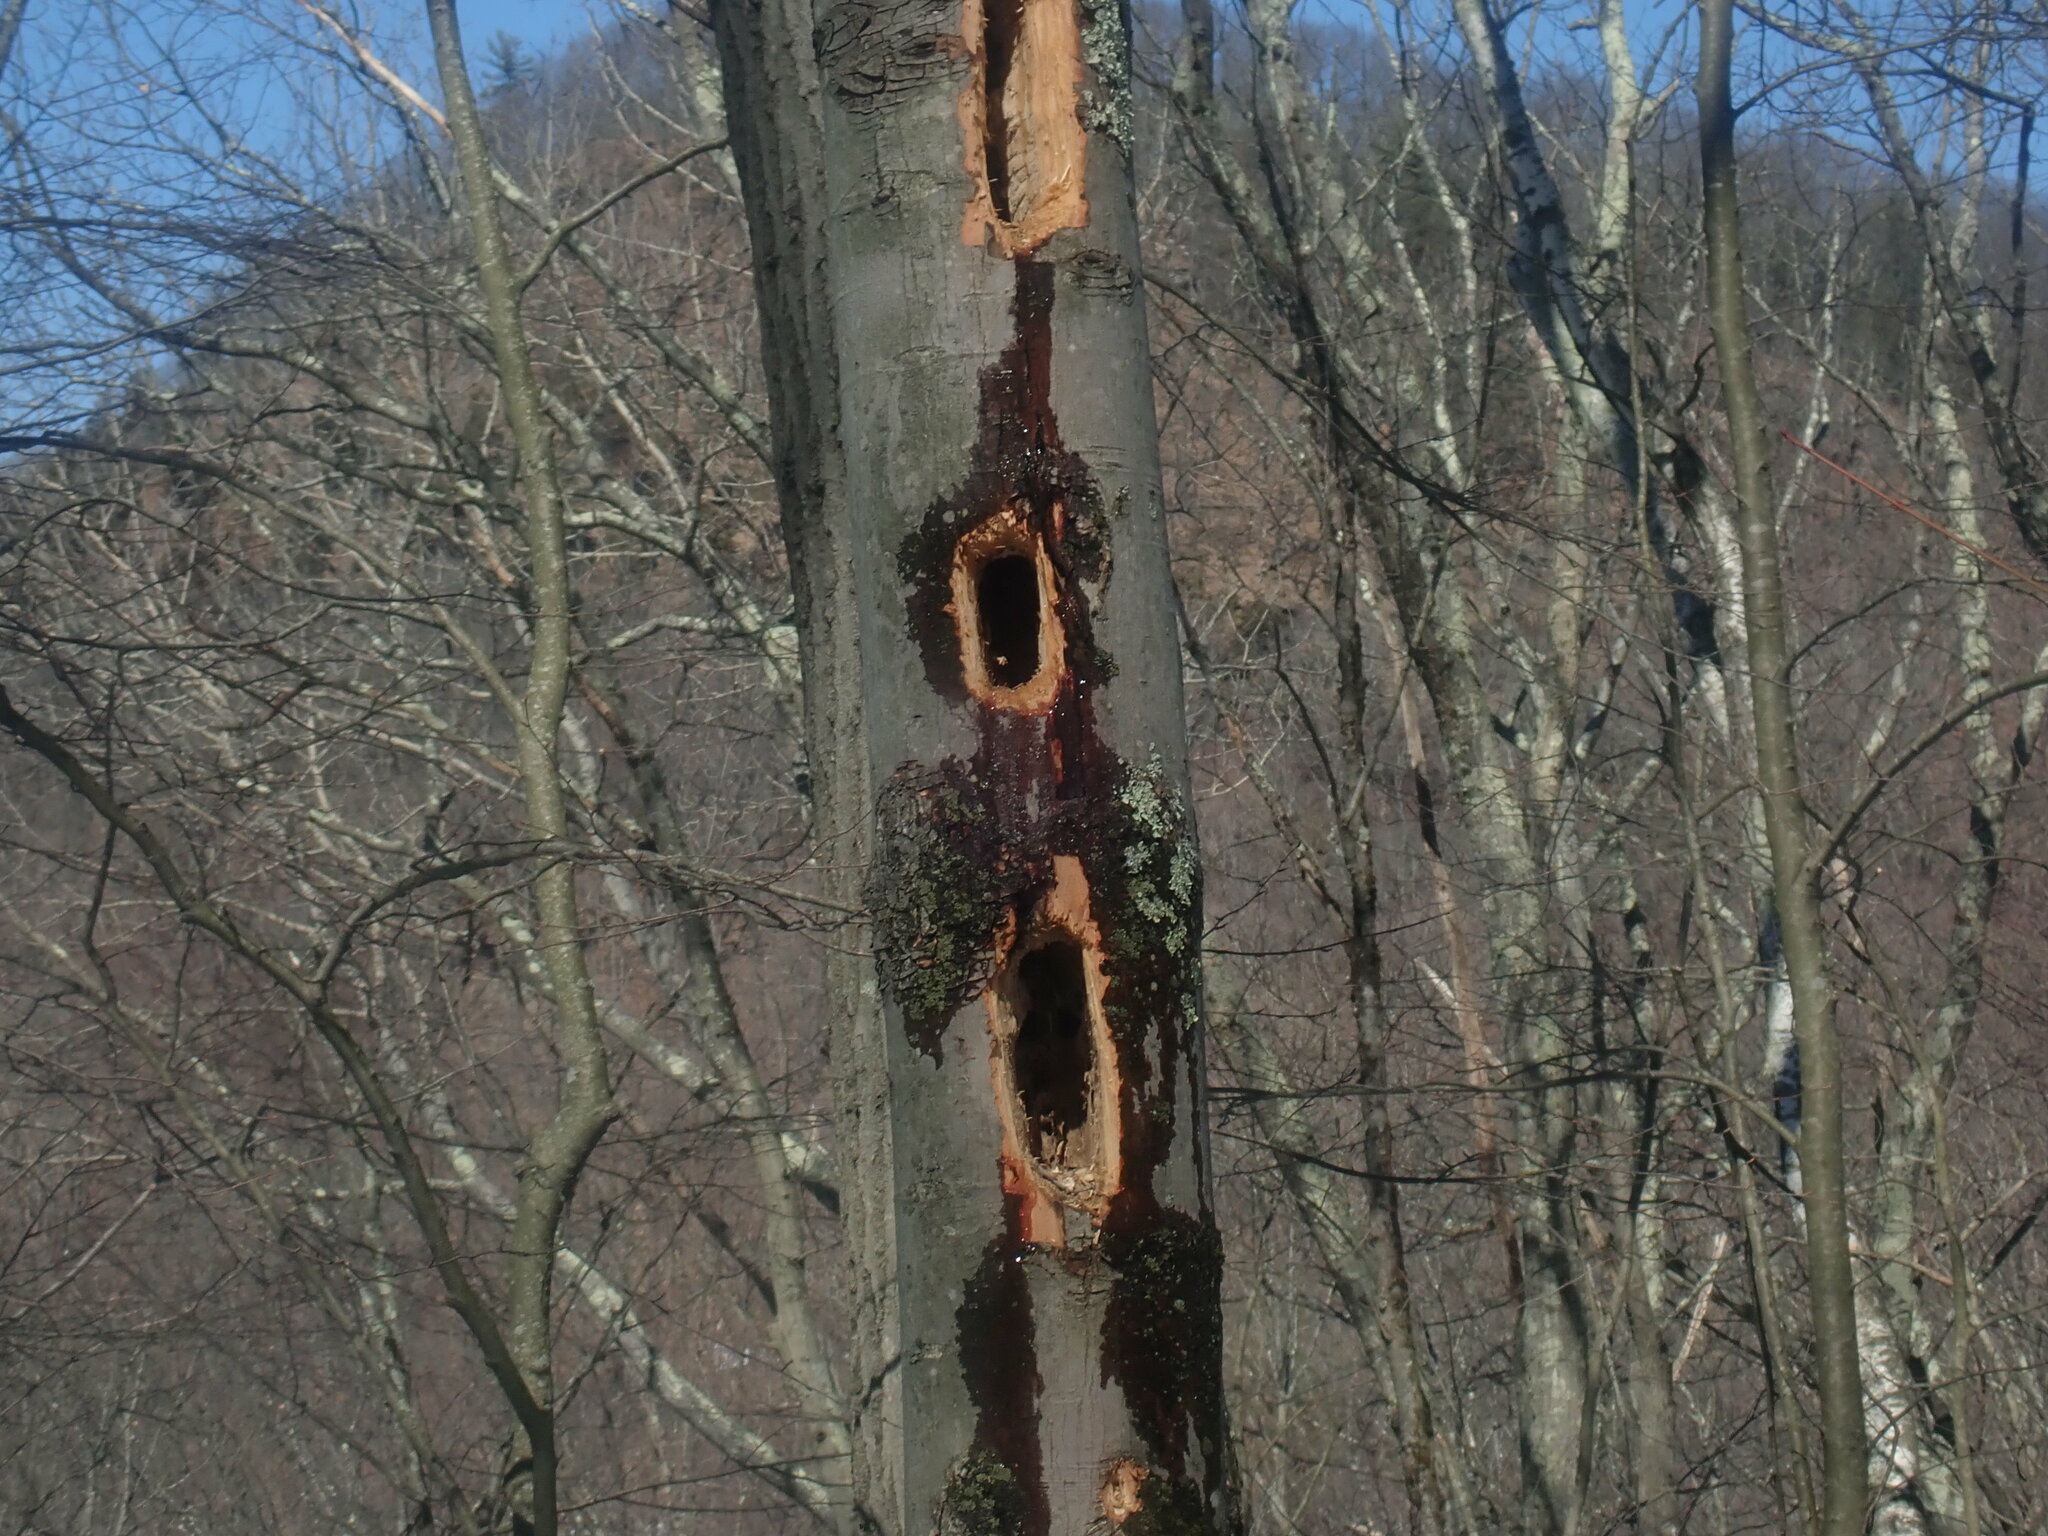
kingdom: Animalia
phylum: Chordata
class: Aves
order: Piciformes
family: Picidae
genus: Dryocopus
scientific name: Dryocopus pileatus
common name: Pileated woodpecker
